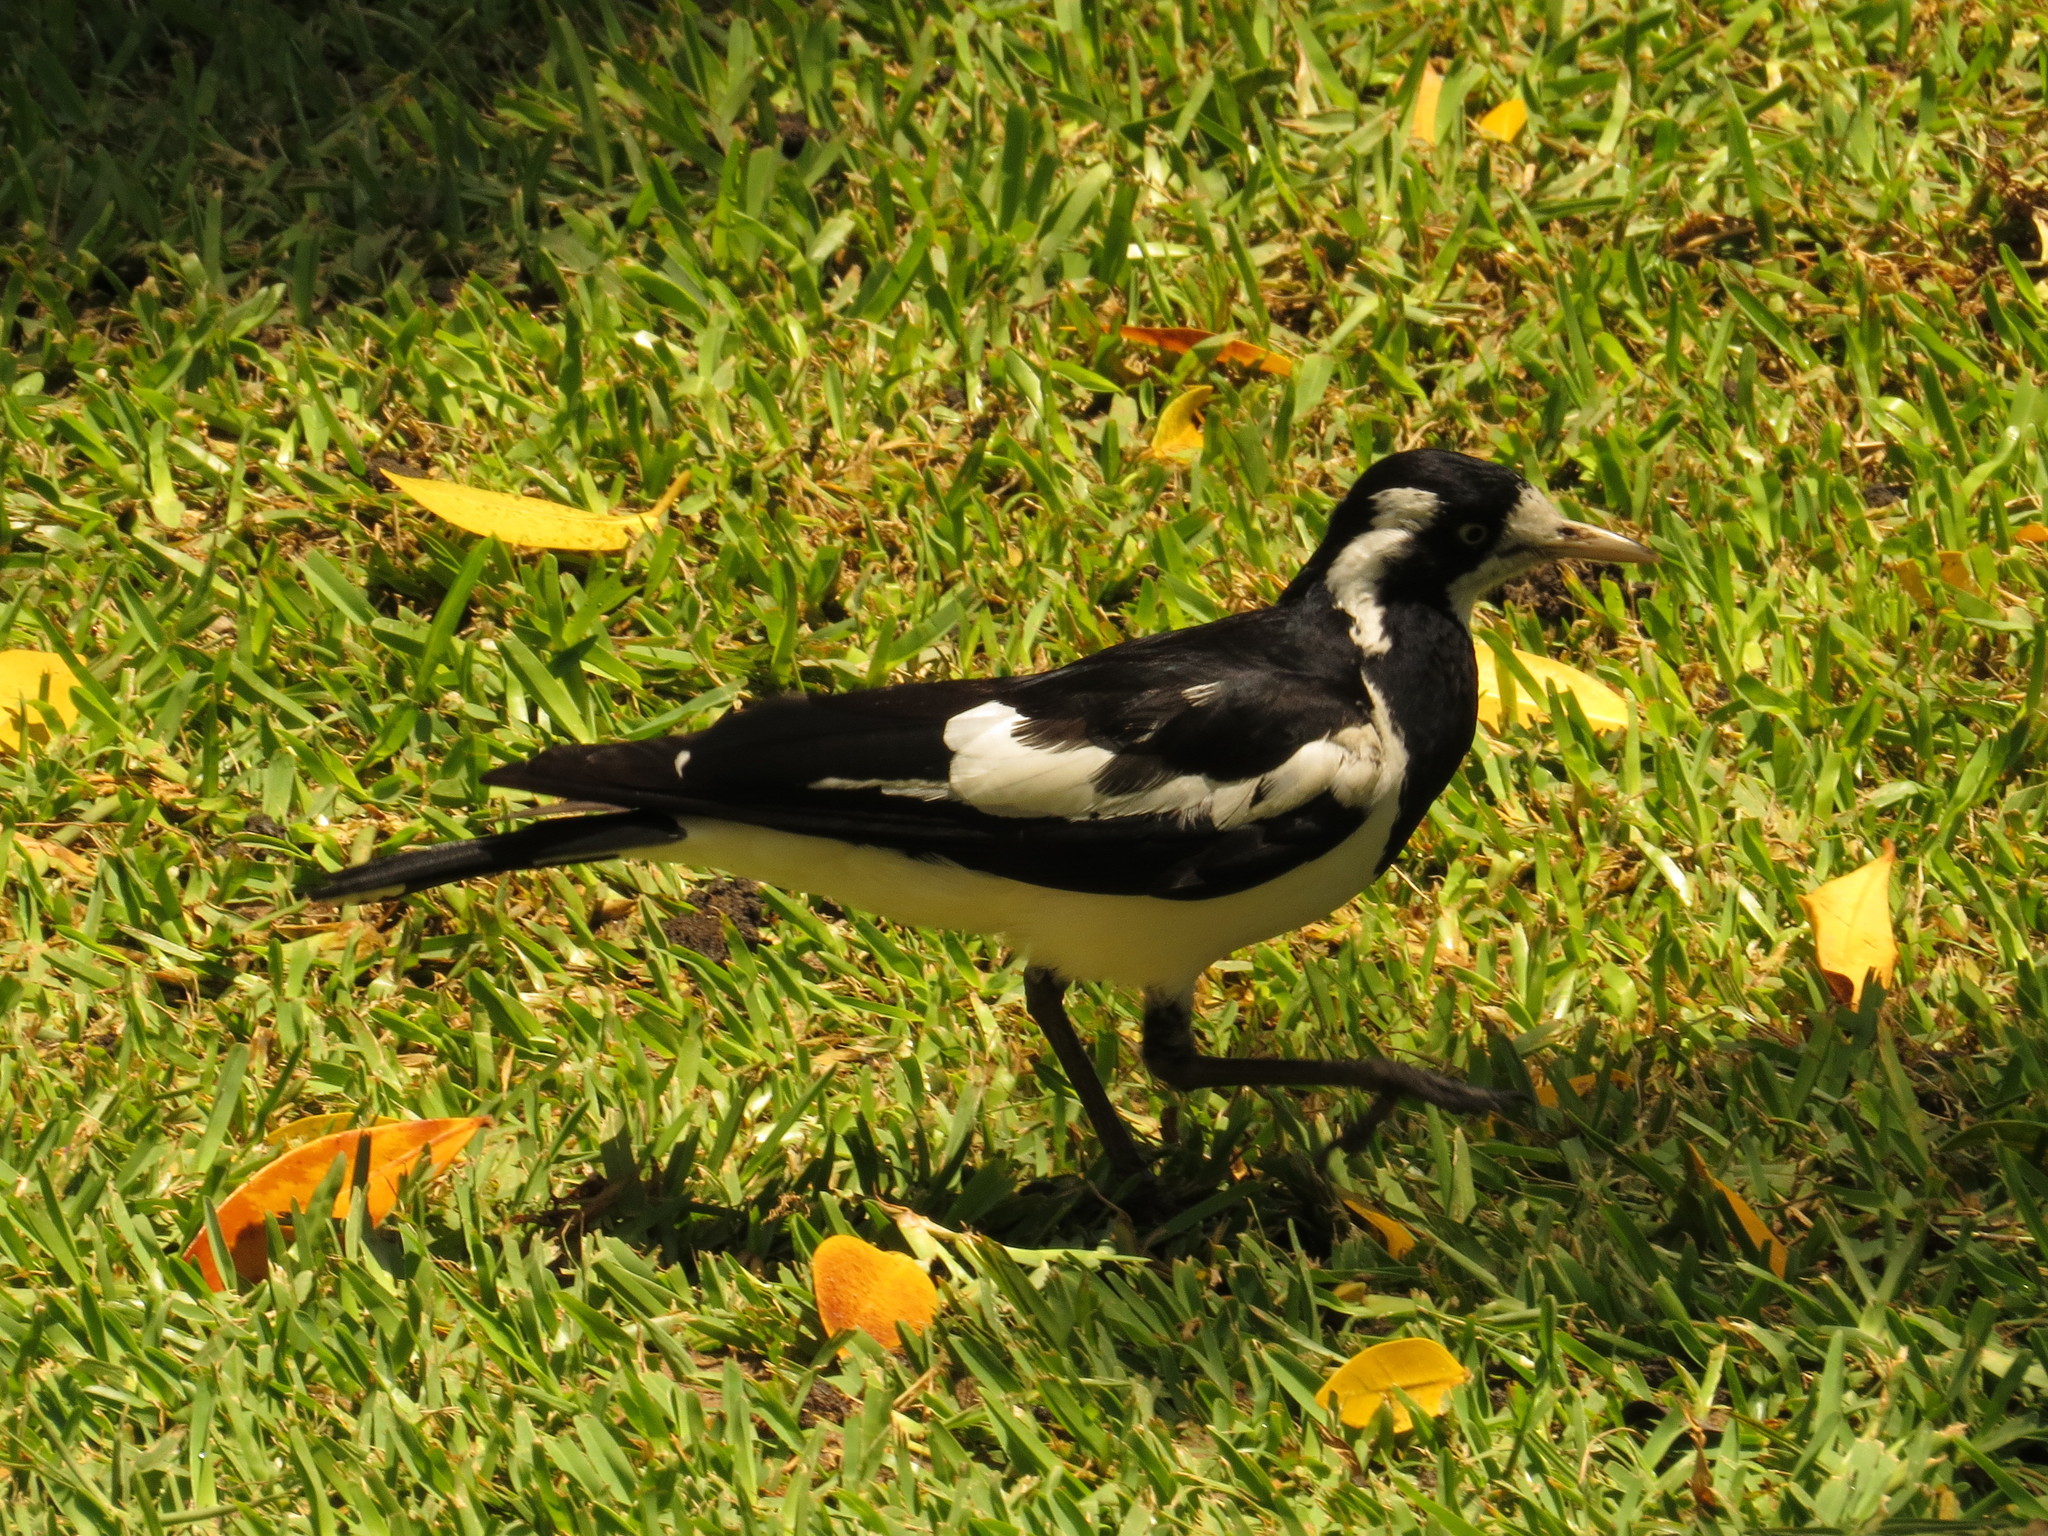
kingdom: Animalia
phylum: Chordata
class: Aves
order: Passeriformes
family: Monarchidae
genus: Grallina
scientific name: Grallina cyanoleuca
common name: Magpie-lark
